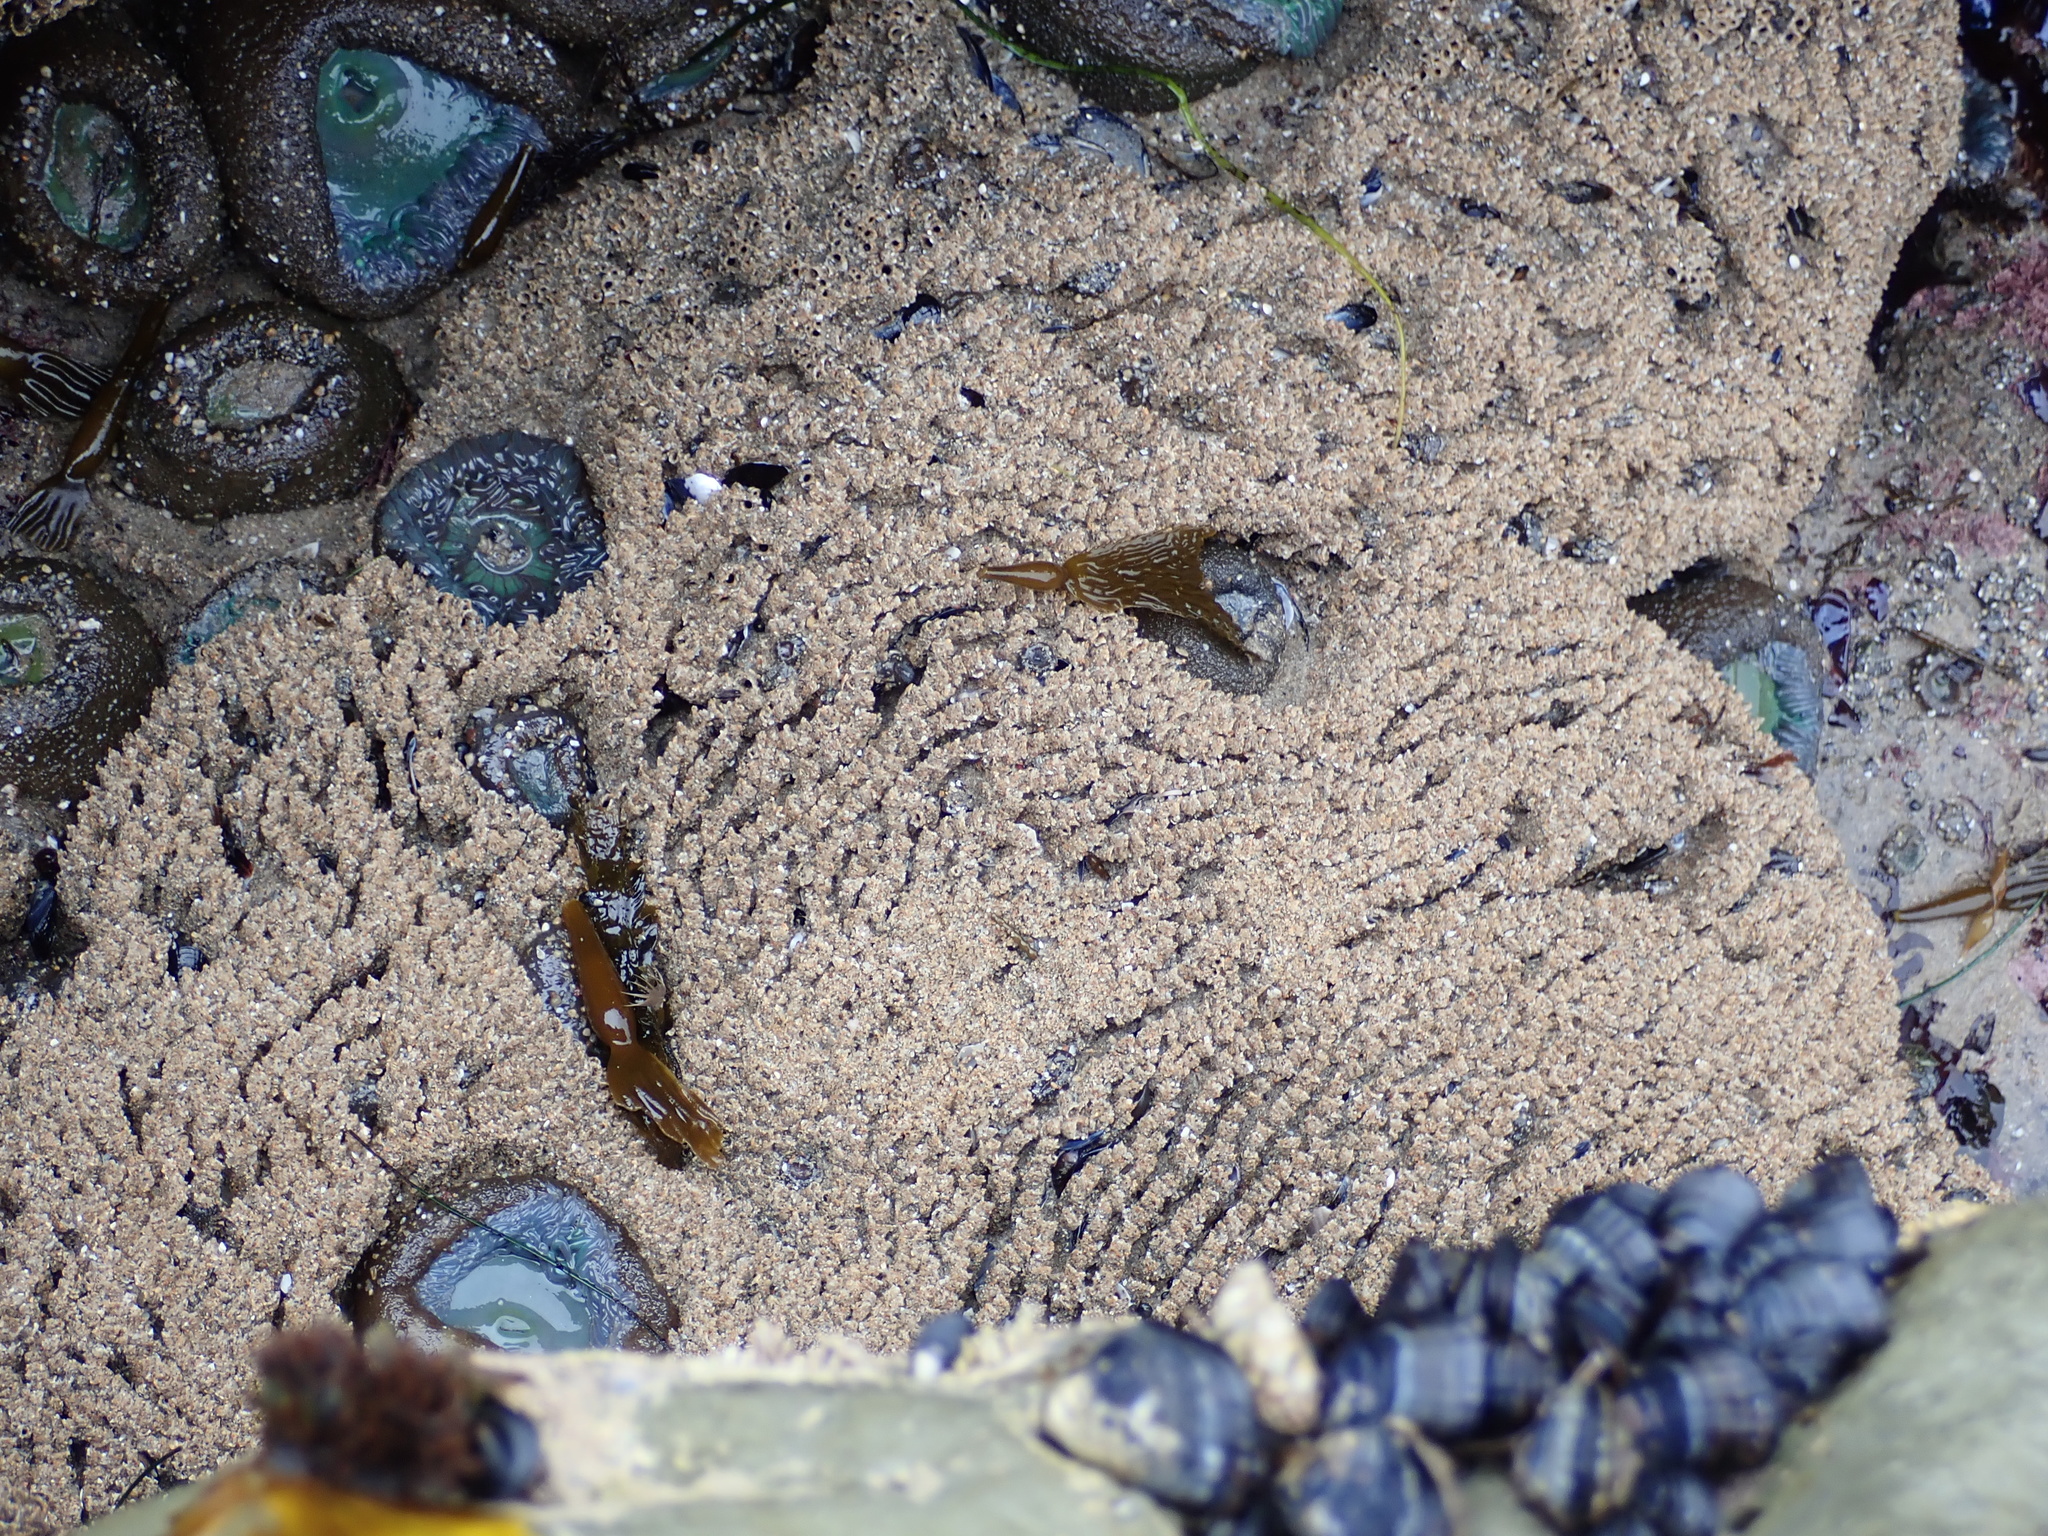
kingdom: Animalia
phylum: Annelida
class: Polychaeta
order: Sabellida
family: Sabellariidae
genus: Phragmatopoma
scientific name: Phragmatopoma californica
